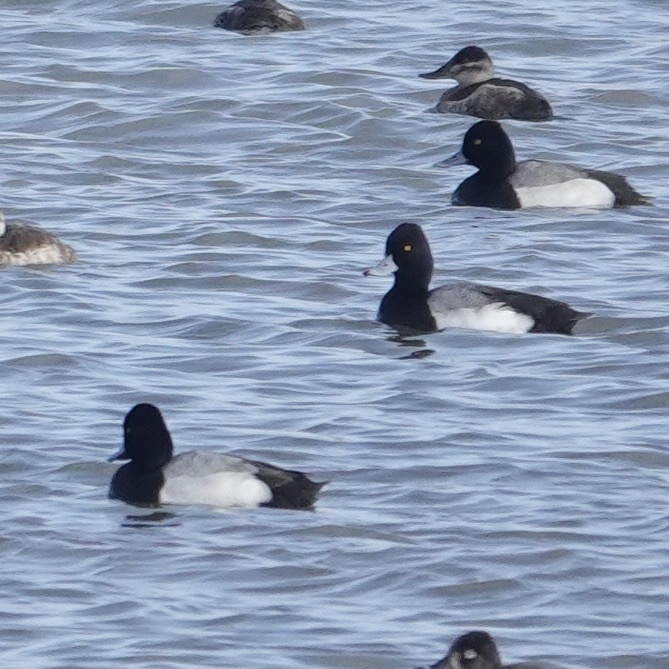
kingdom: Animalia
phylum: Chordata
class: Aves
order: Anseriformes
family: Anatidae
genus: Aythya
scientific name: Aythya affinis
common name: Lesser scaup
